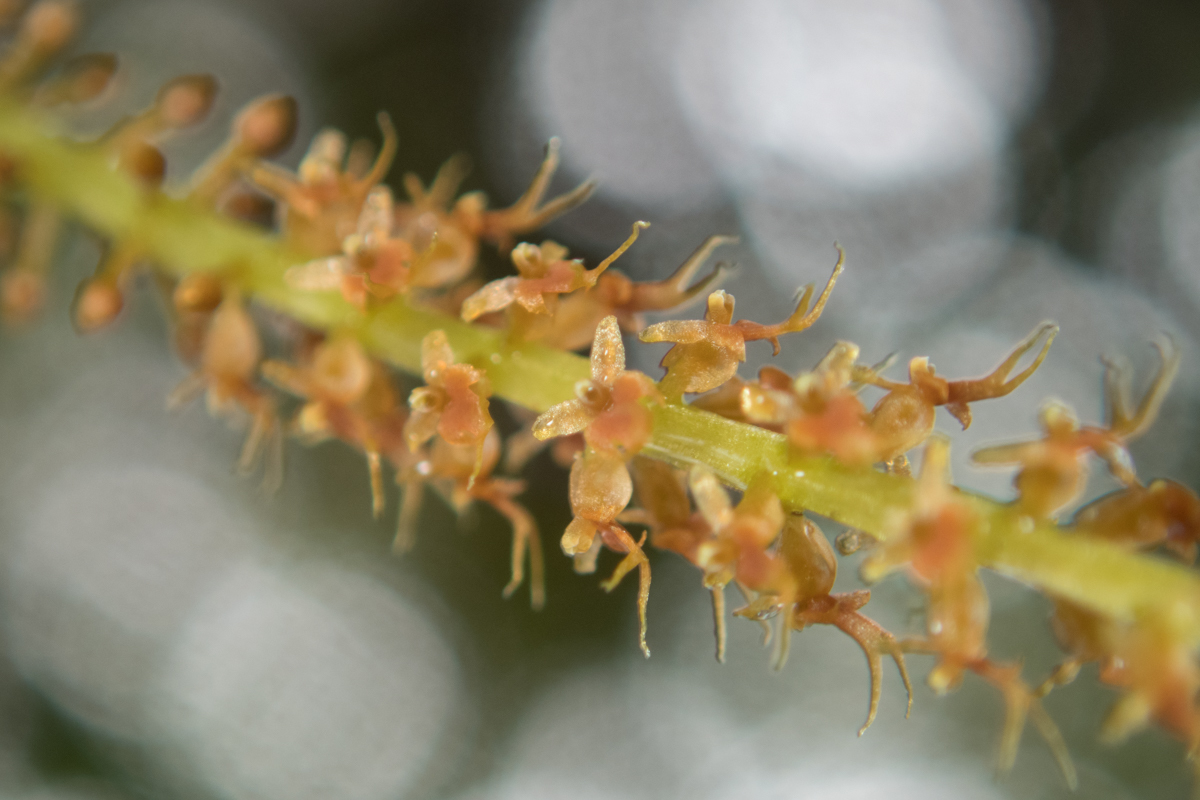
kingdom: Plantae
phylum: Tracheophyta
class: Liliopsida
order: Asparagales
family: Orchidaceae
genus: Oberonia
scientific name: Oberonia falcata
